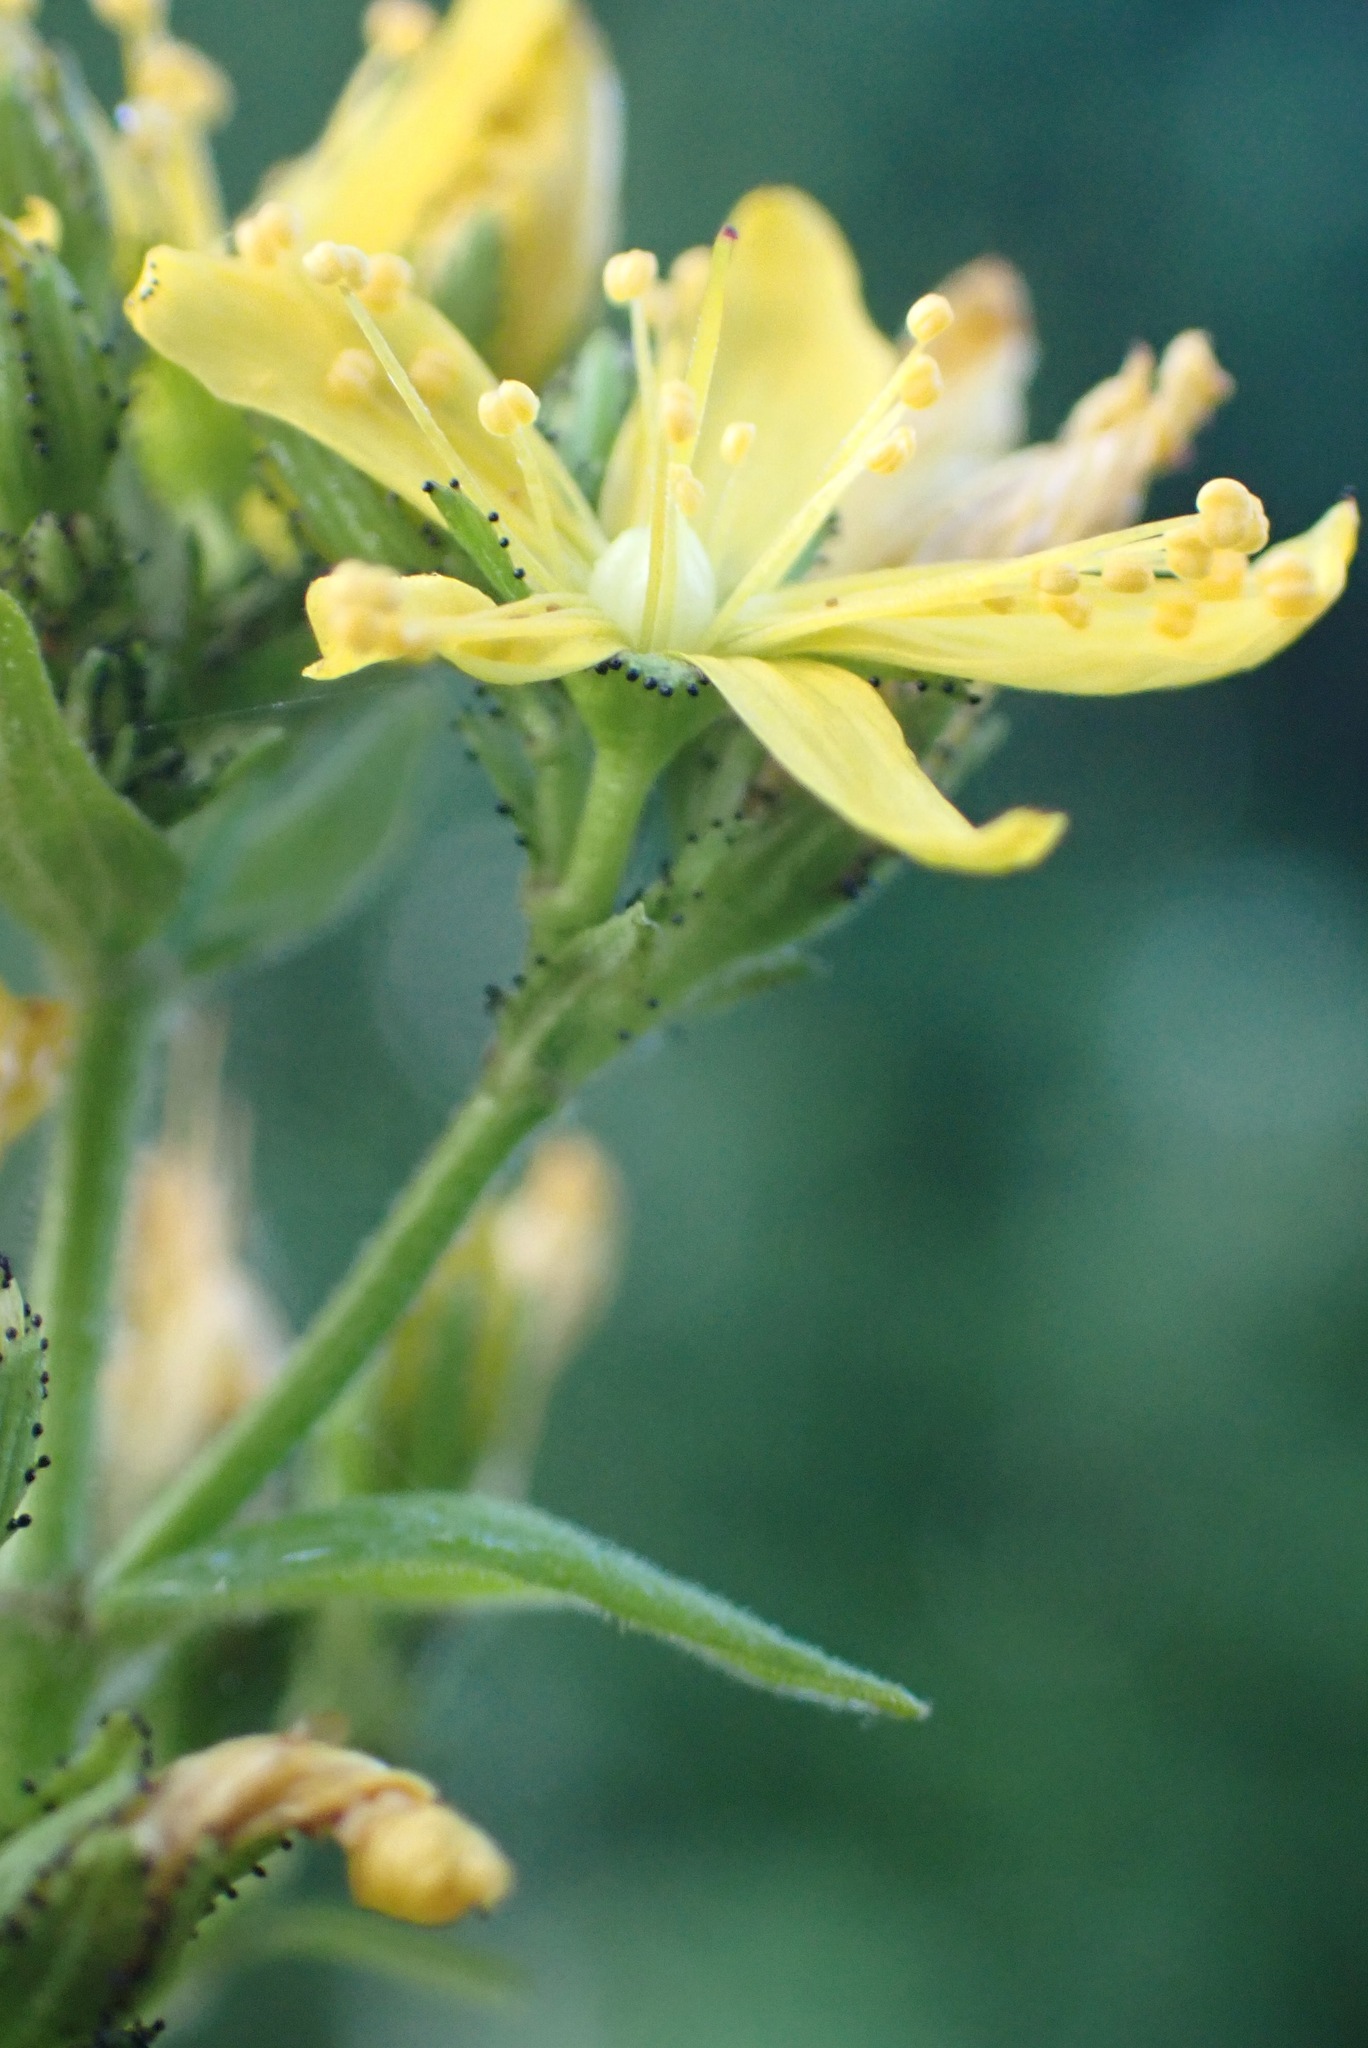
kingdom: Plantae
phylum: Tracheophyta
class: Magnoliopsida
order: Malpighiales
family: Hypericaceae
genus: Hypericum
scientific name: Hypericum hirsutum
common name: Hairy st. john's-wort
